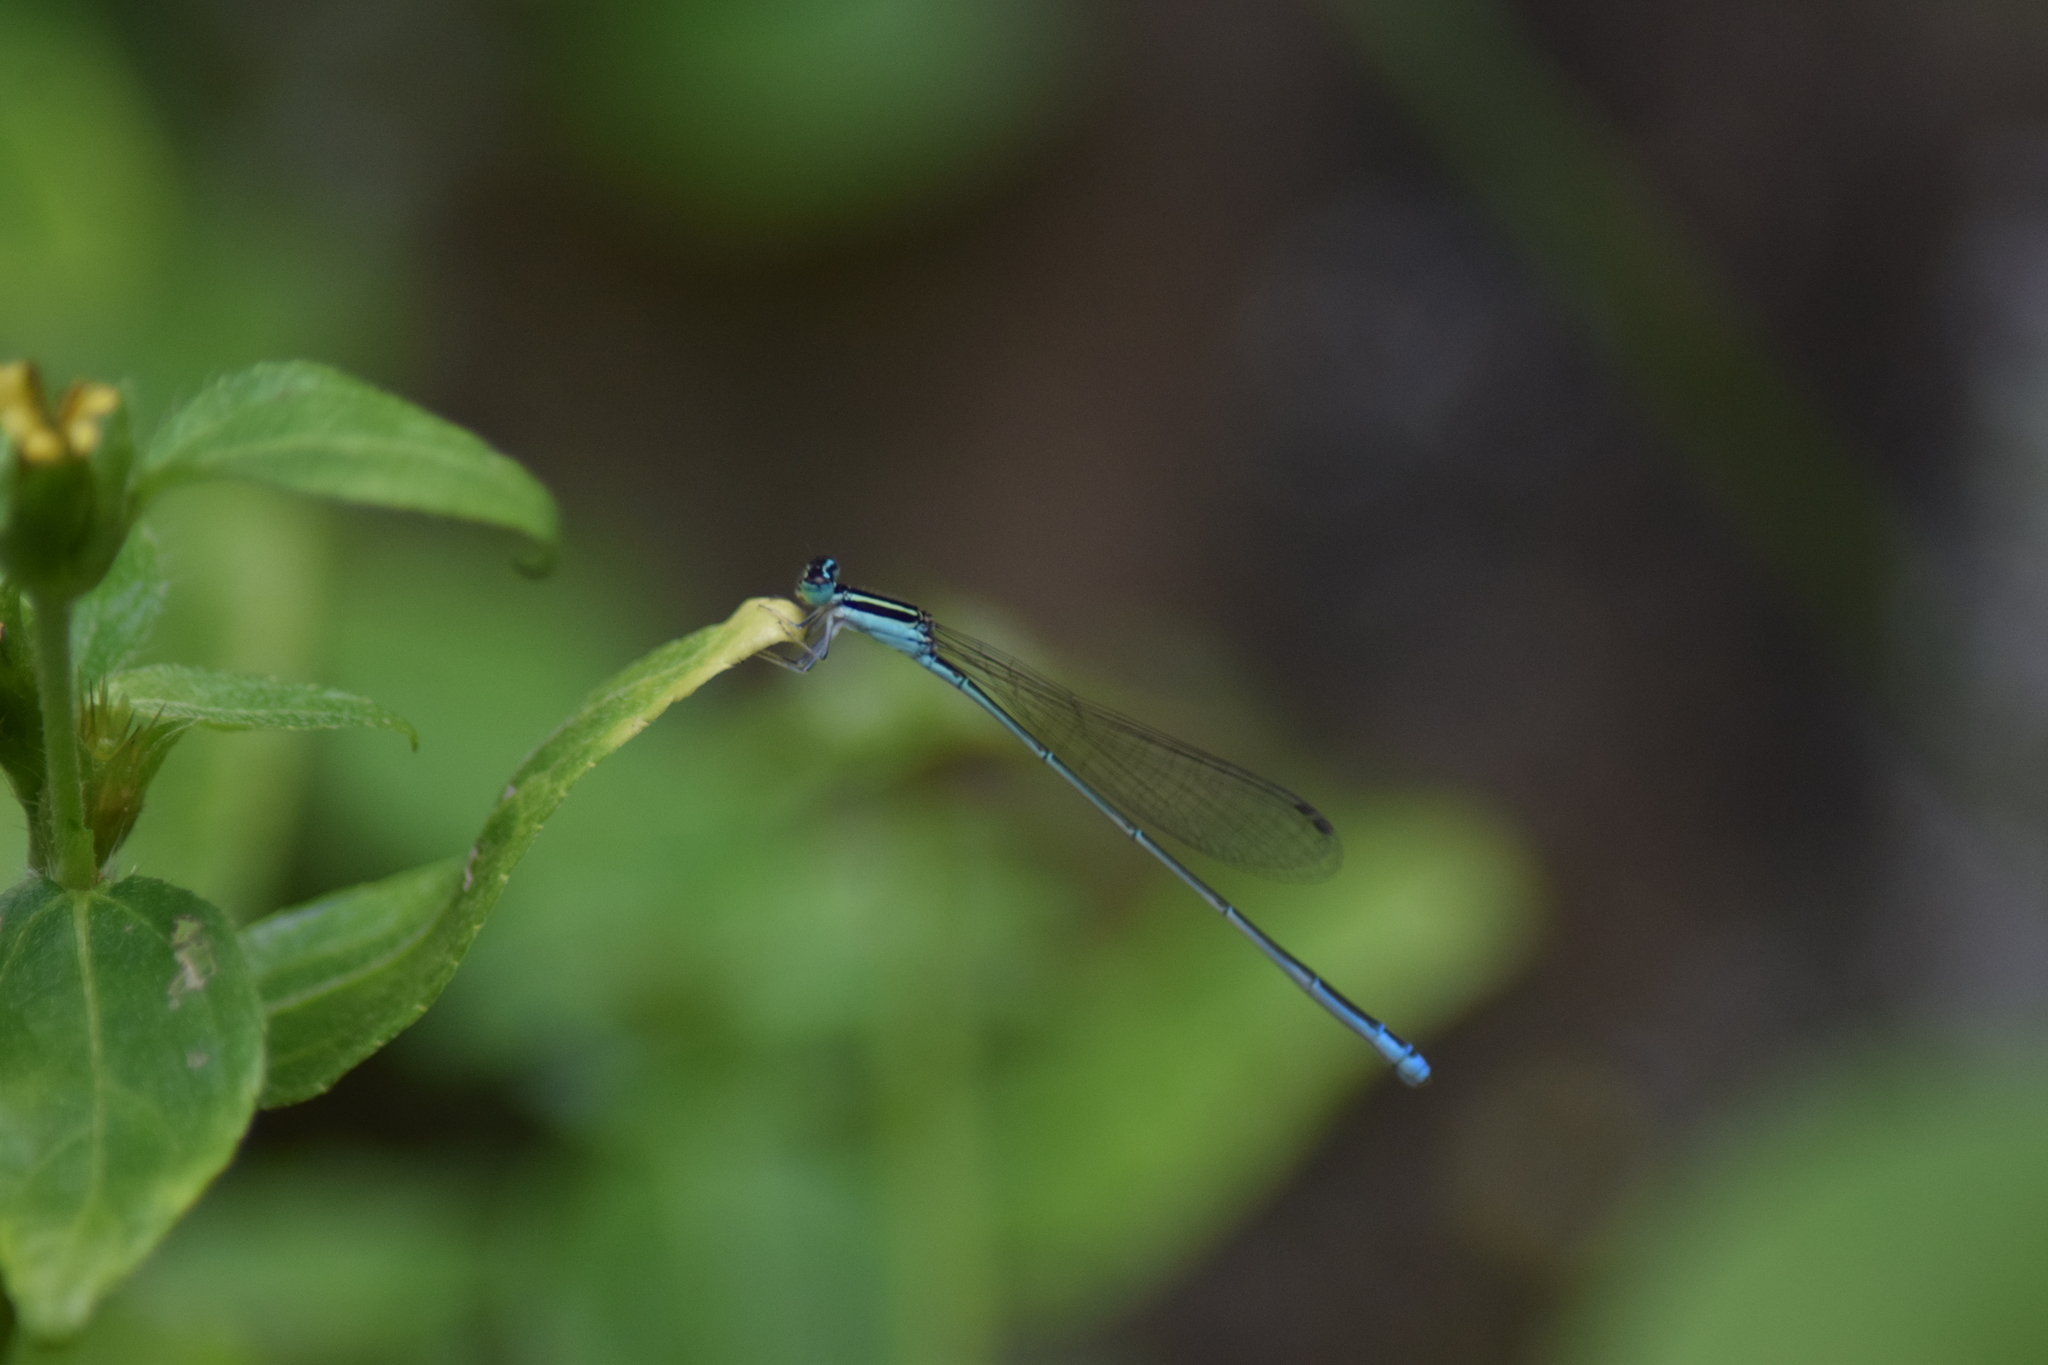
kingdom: Animalia
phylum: Arthropoda
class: Insecta
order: Odonata
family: Coenagrionidae
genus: Aciagrion
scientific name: Aciagrion occidentale
